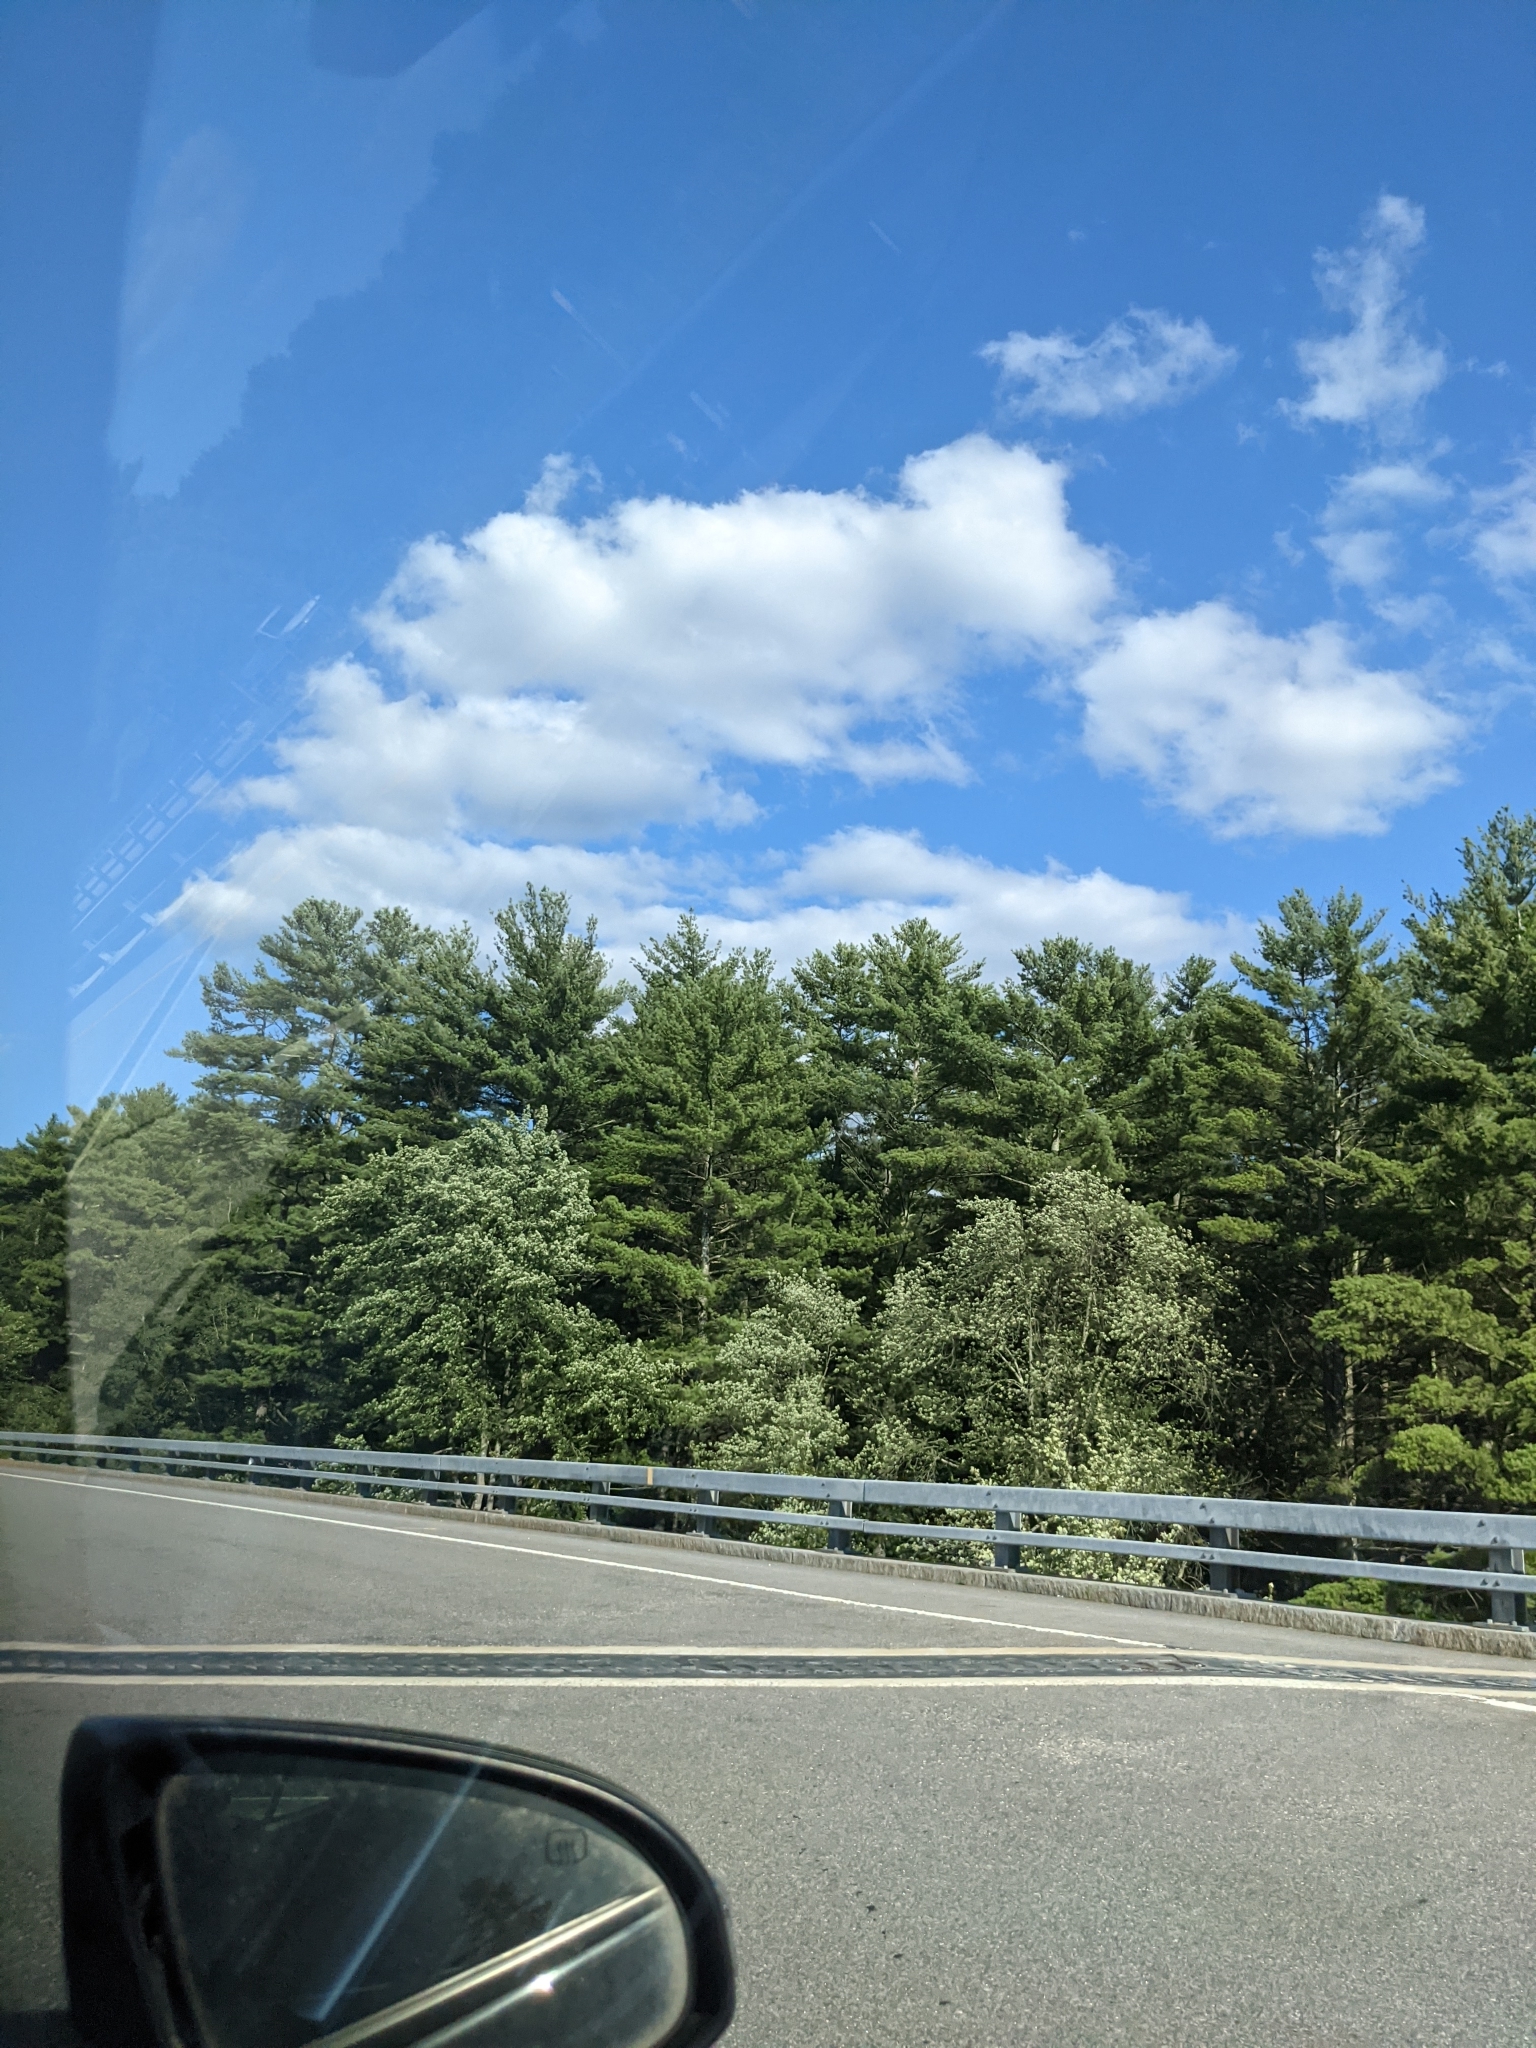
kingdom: Plantae
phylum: Tracheophyta
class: Pinopsida
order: Pinales
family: Pinaceae
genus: Pinus
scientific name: Pinus strobus
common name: Weymouth pine
